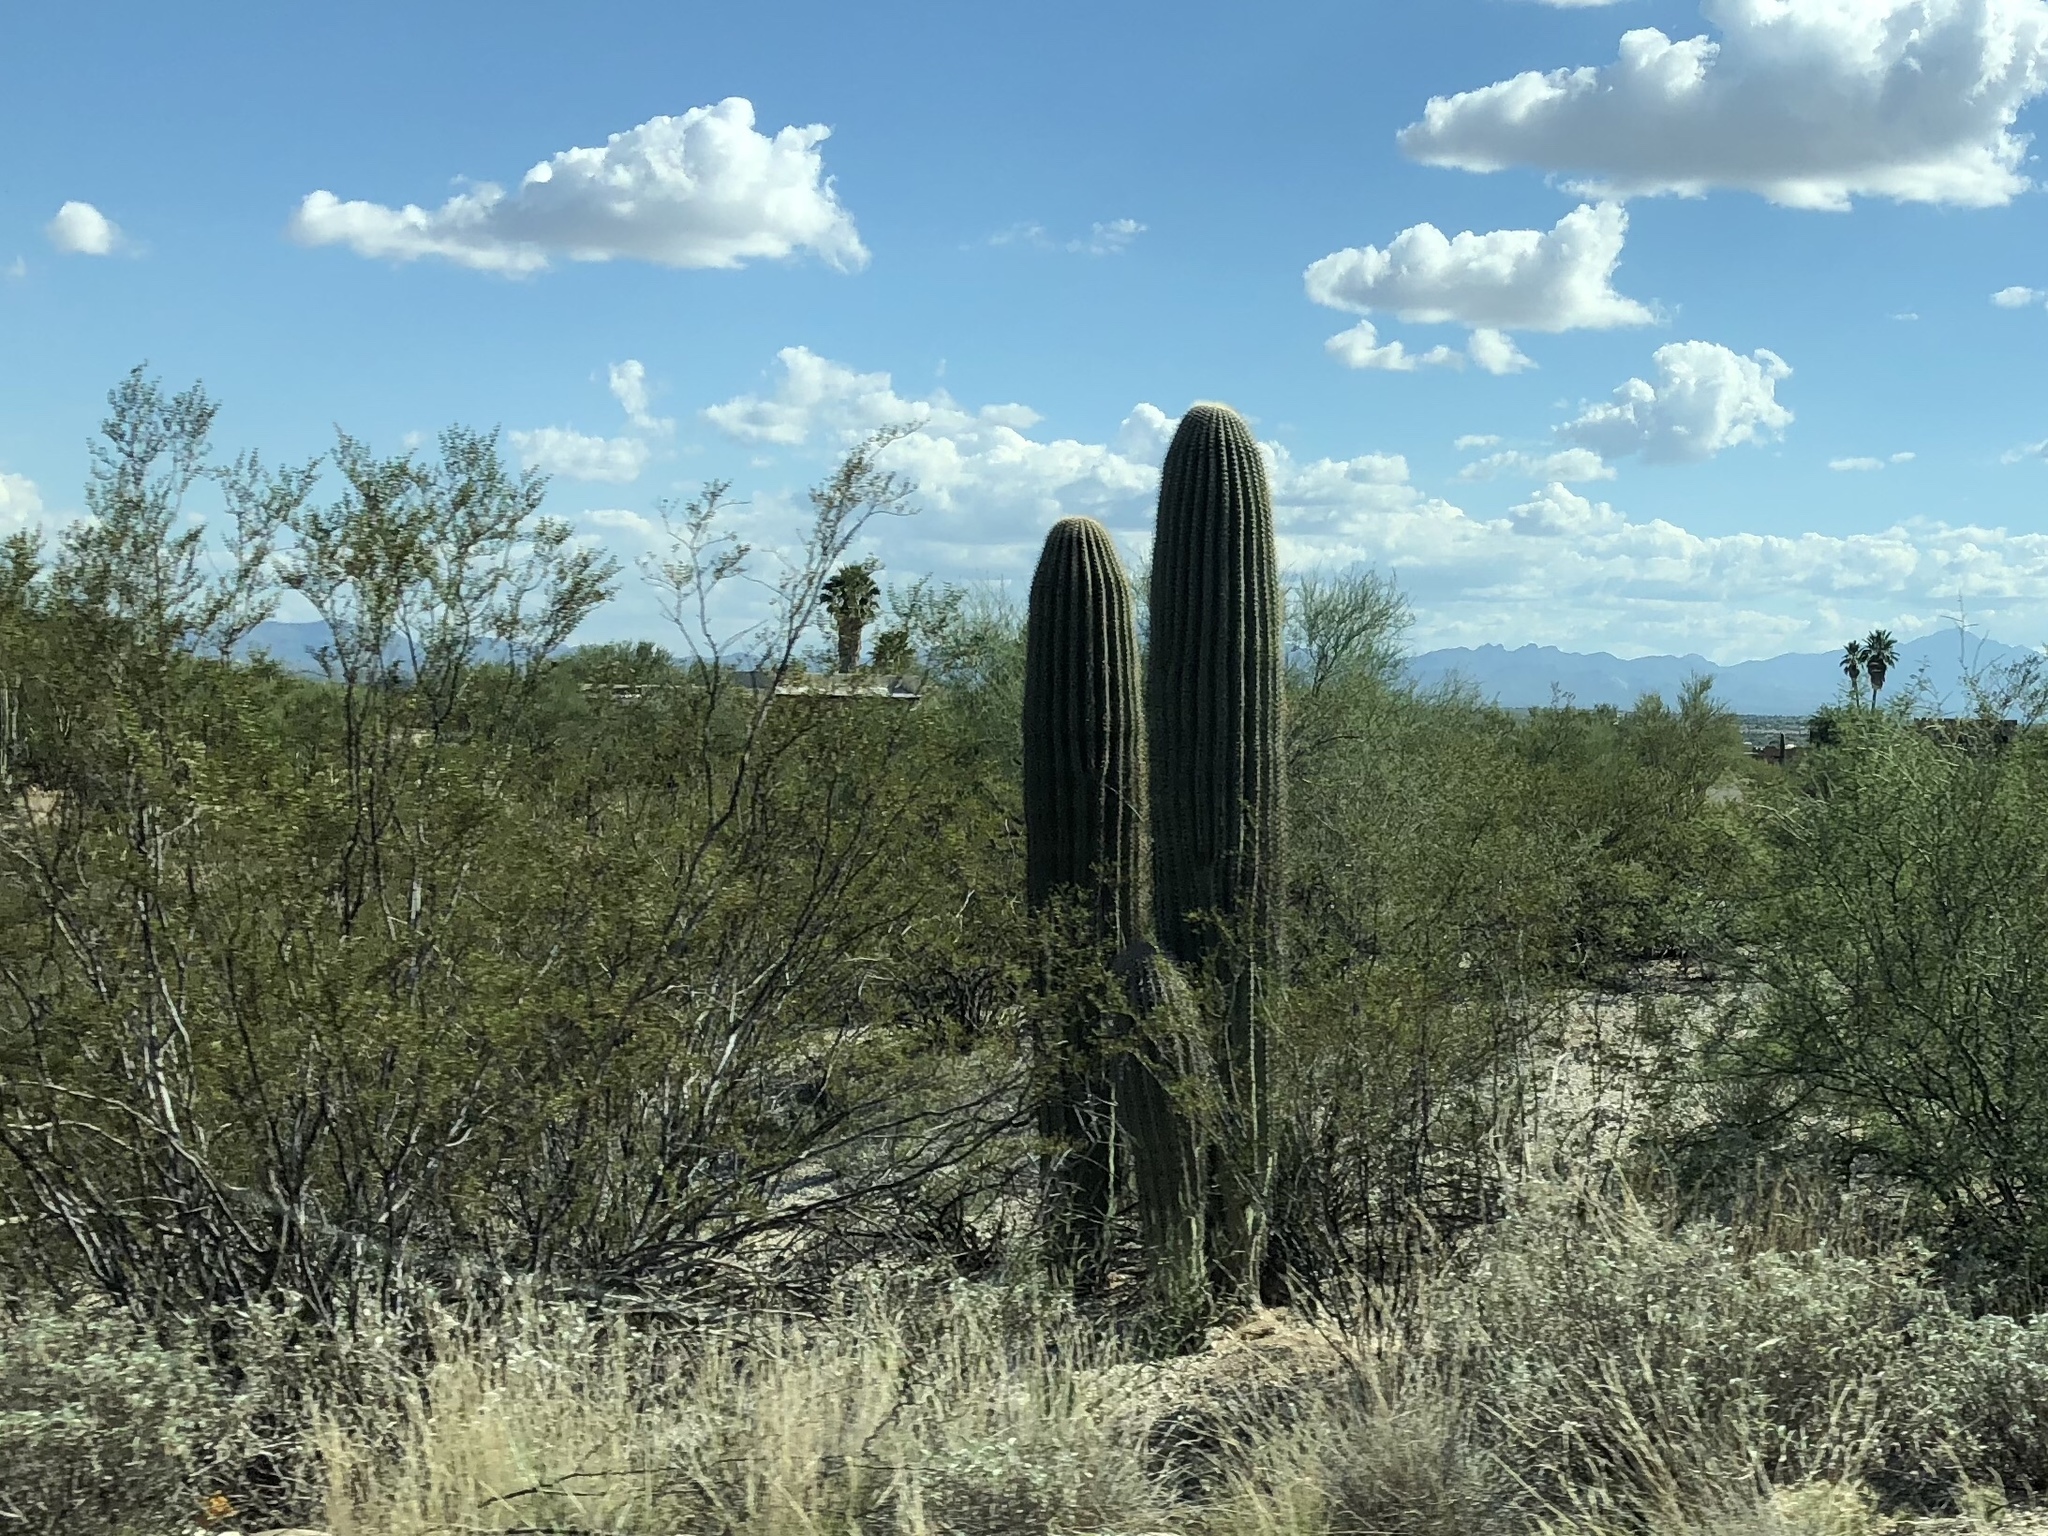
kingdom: Plantae
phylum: Tracheophyta
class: Magnoliopsida
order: Caryophyllales
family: Cactaceae
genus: Carnegiea
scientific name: Carnegiea gigantea
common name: Saguaro
